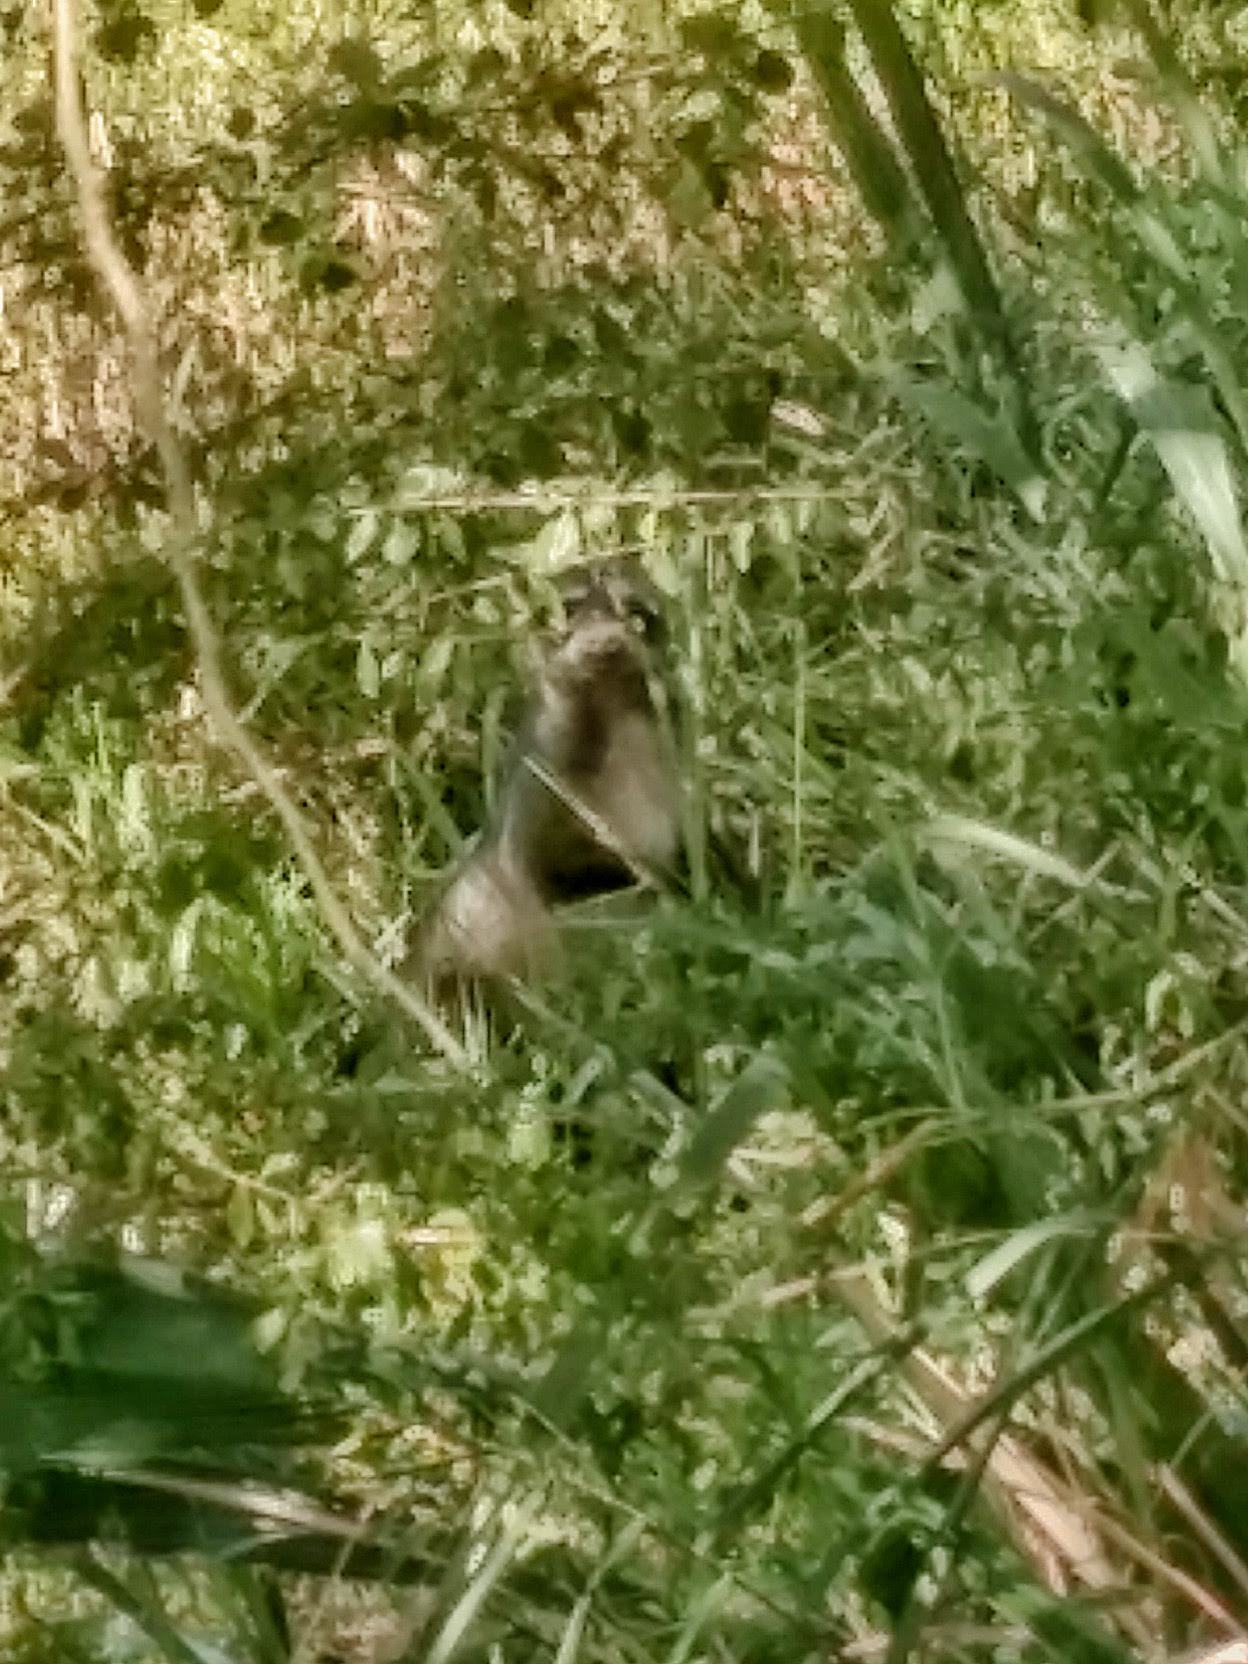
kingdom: Animalia
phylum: Chordata
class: Mammalia
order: Carnivora
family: Procyonidae
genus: Procyon
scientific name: Procyon cancrivorus
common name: Crab-eating raccoon
